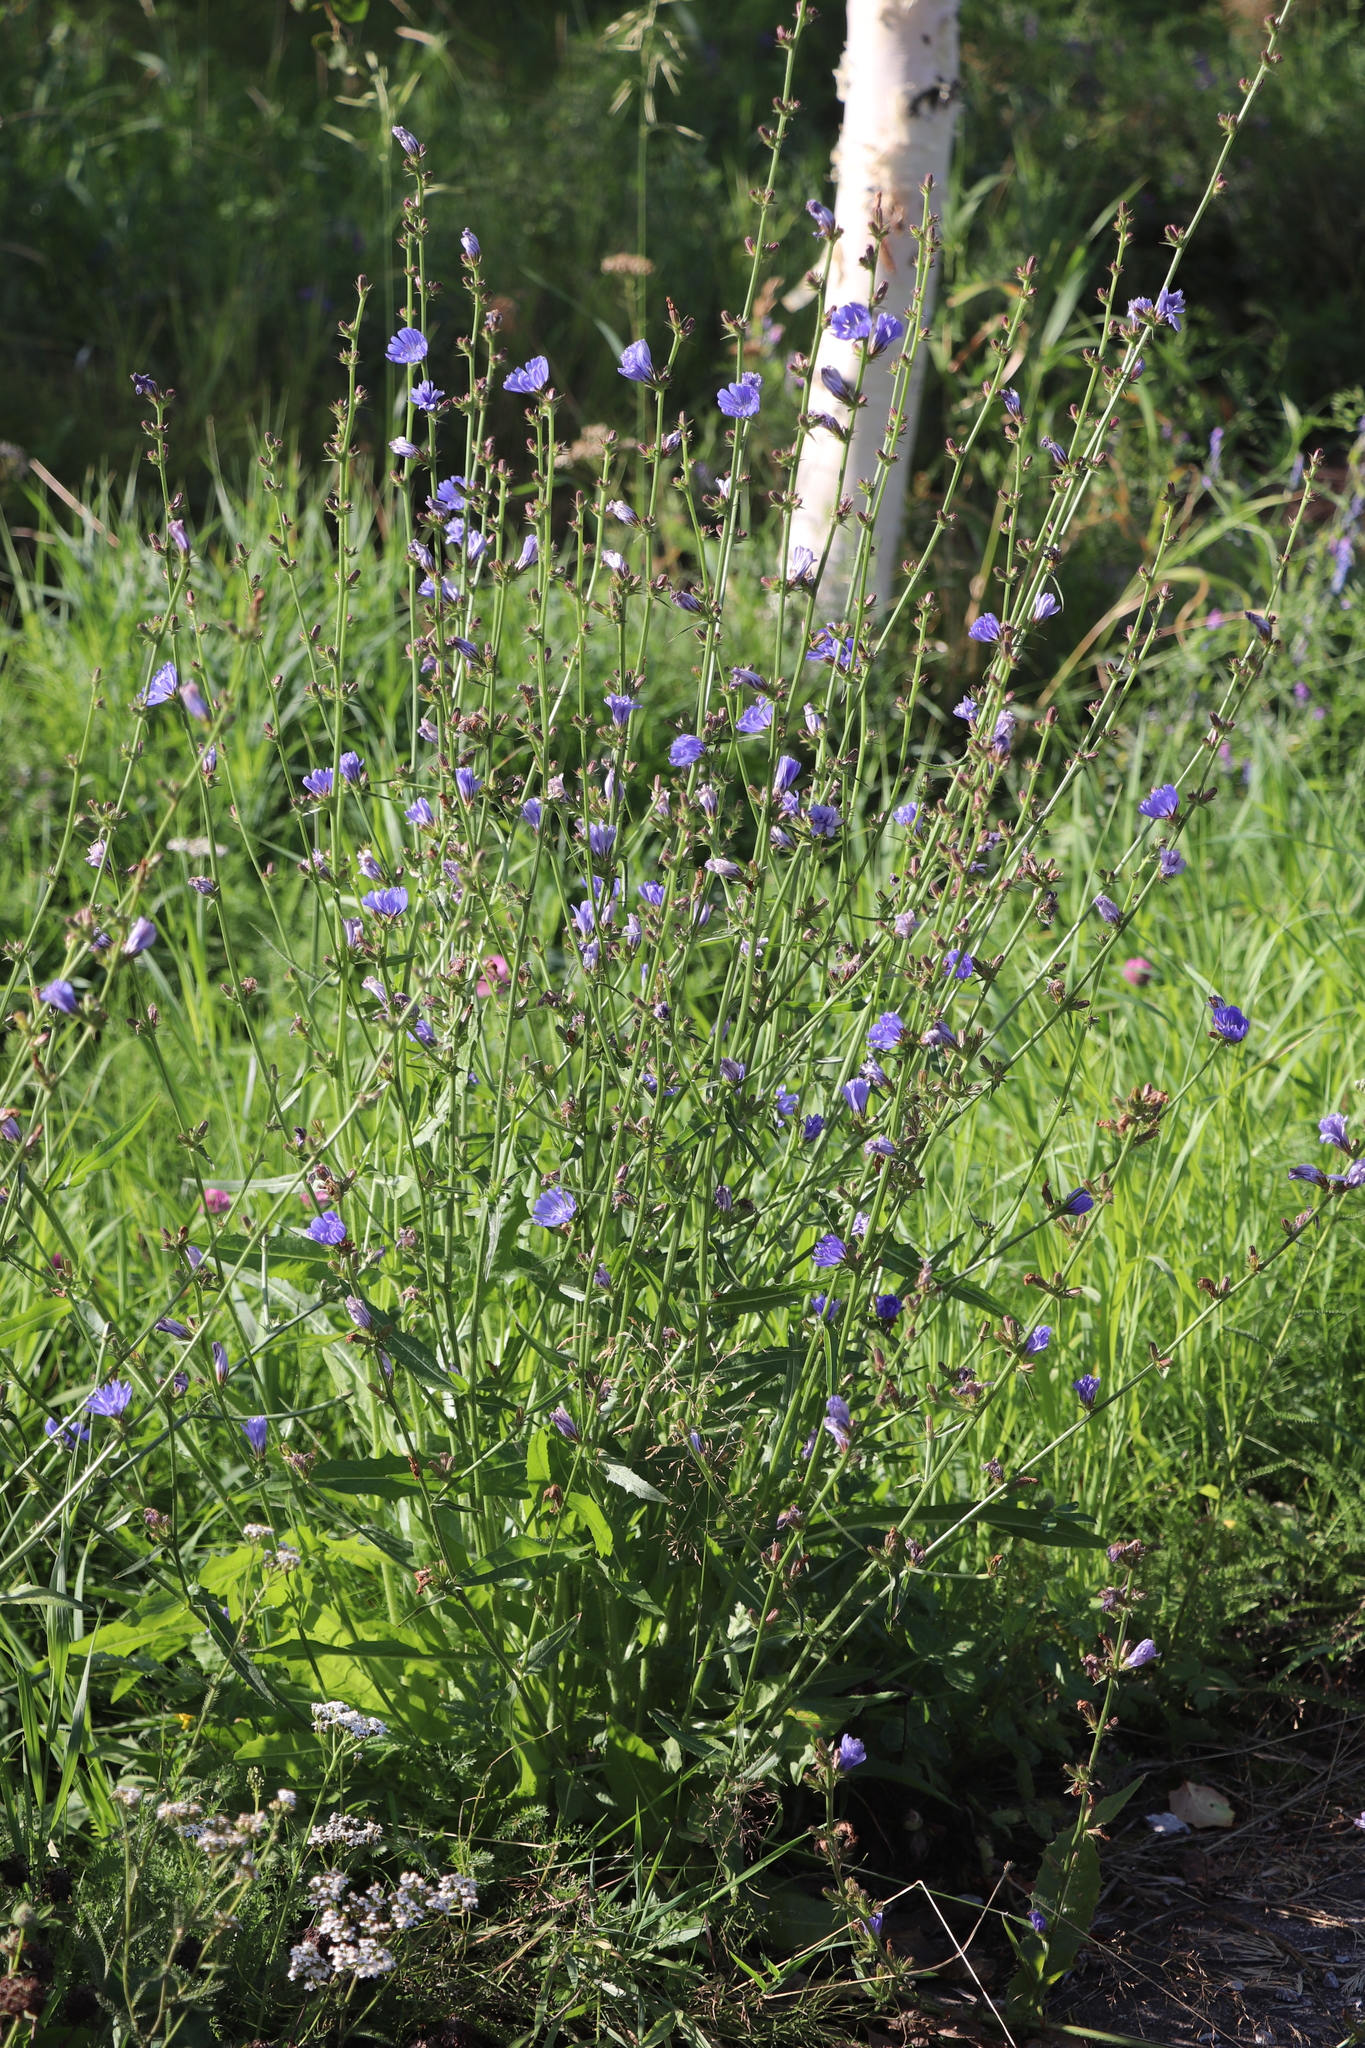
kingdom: Plantae
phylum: Tracheophyta
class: Magnoliopsida
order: Asterales
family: Asteraceae
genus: Cichorium
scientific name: Cichorium intybus
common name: Chicory
